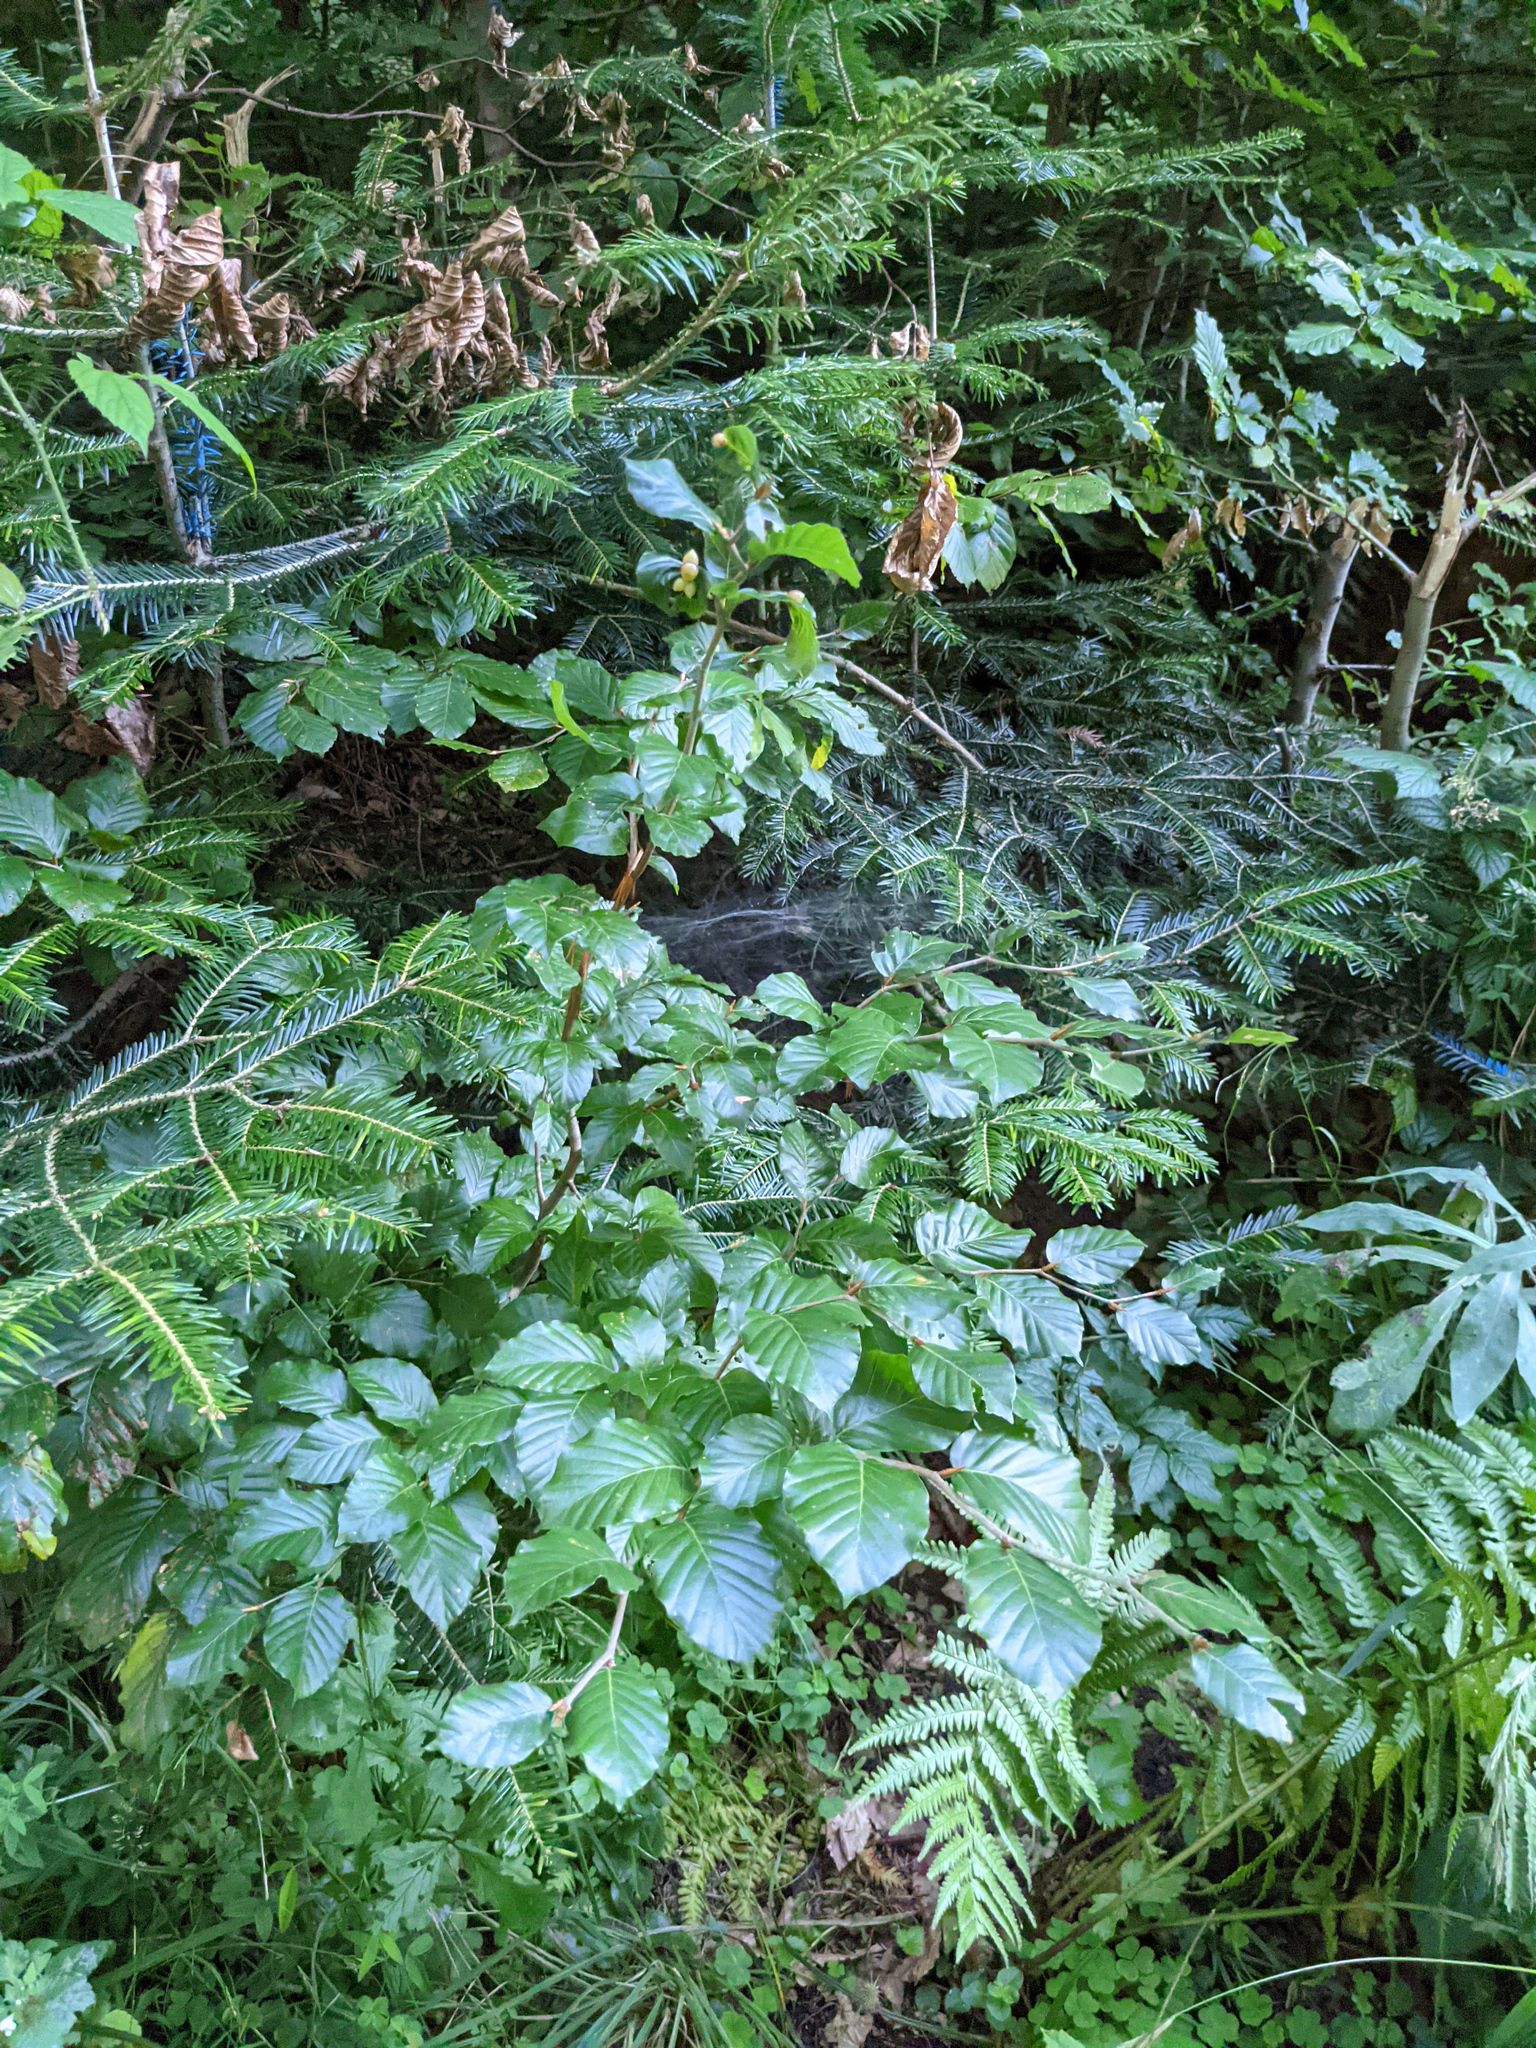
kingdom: Plantae
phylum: Tracheophyta
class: Magnoliopsida
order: Fagales
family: Fagaceae
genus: Fagus
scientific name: Fagus sylvatica
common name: Beech
